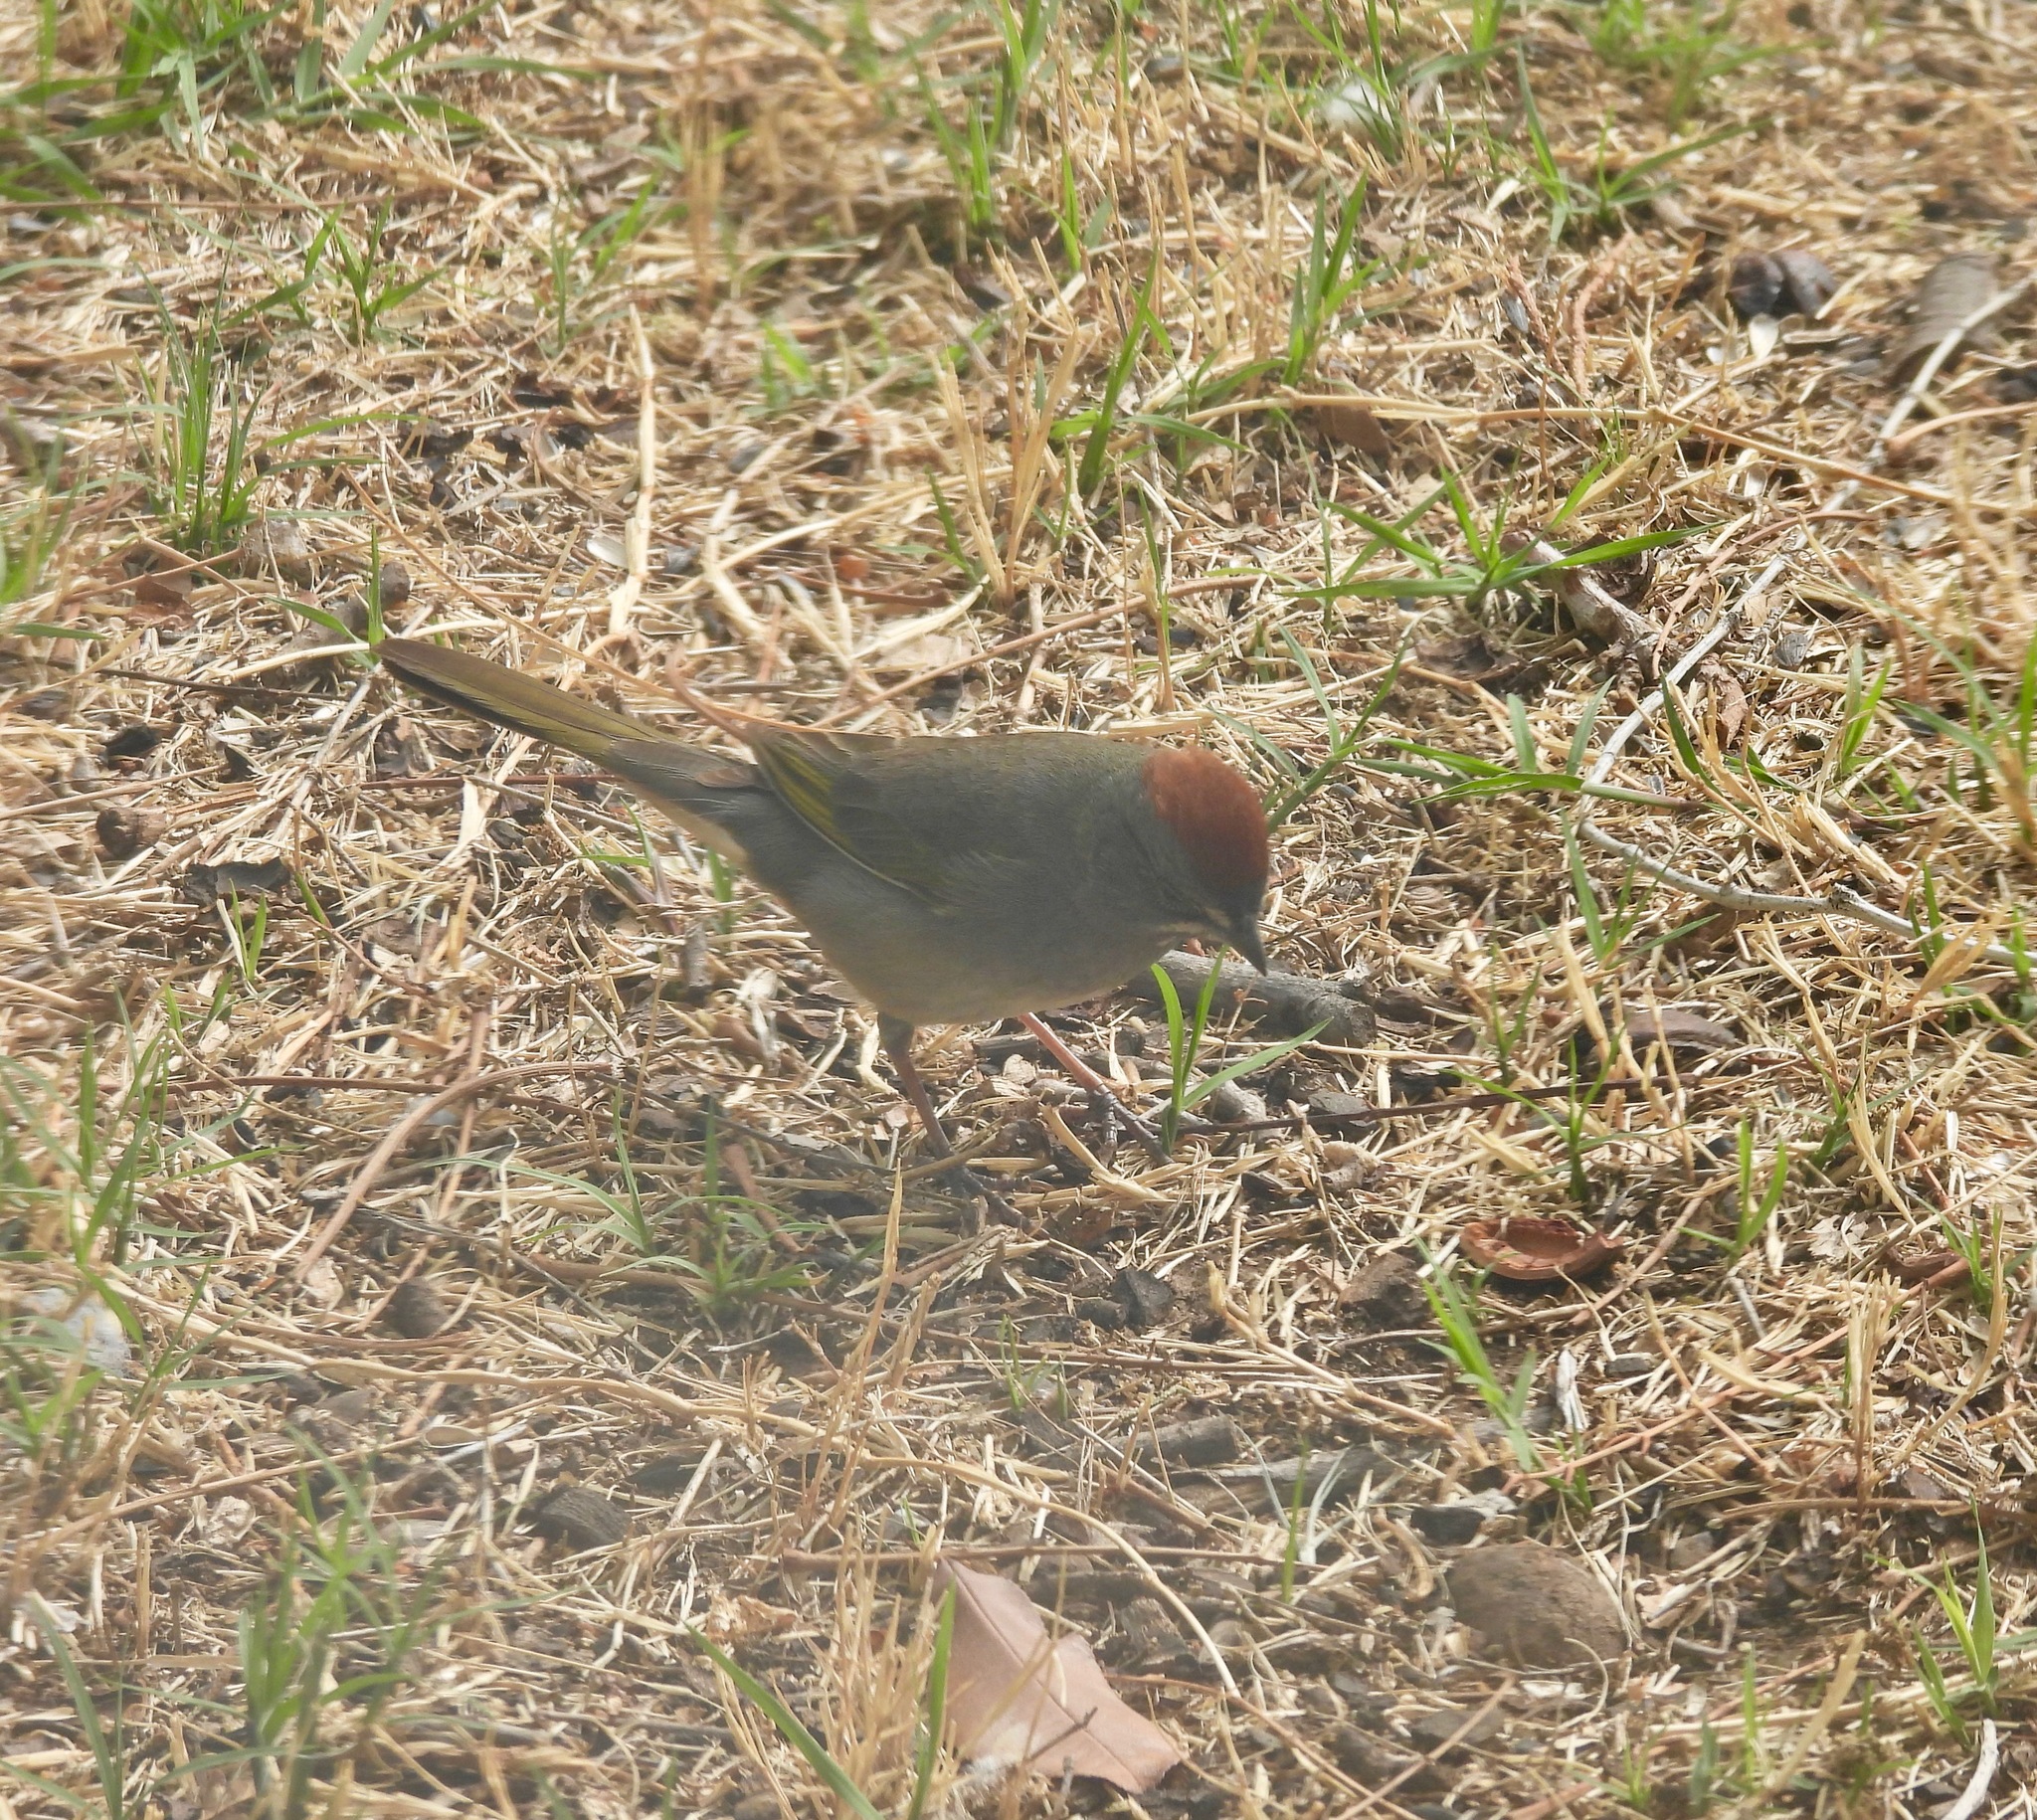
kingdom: Animalia
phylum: Chordata
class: Aves
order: Passeriformes
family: Passerellidae
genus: Pipilo
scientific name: Pipilo chlorurus
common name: Green-tailed towhee
